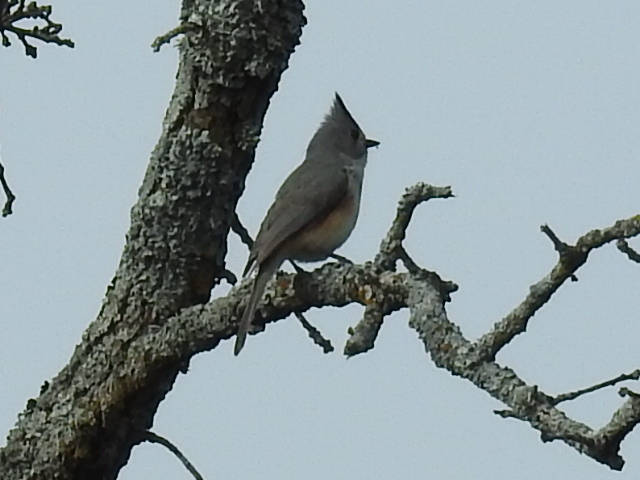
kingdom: Animalia
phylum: Chordata
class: Aves
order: Passeriformes
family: Paridae
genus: Baeolophus
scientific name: Baeolophus atricristatus
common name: Black-crested titmouse
